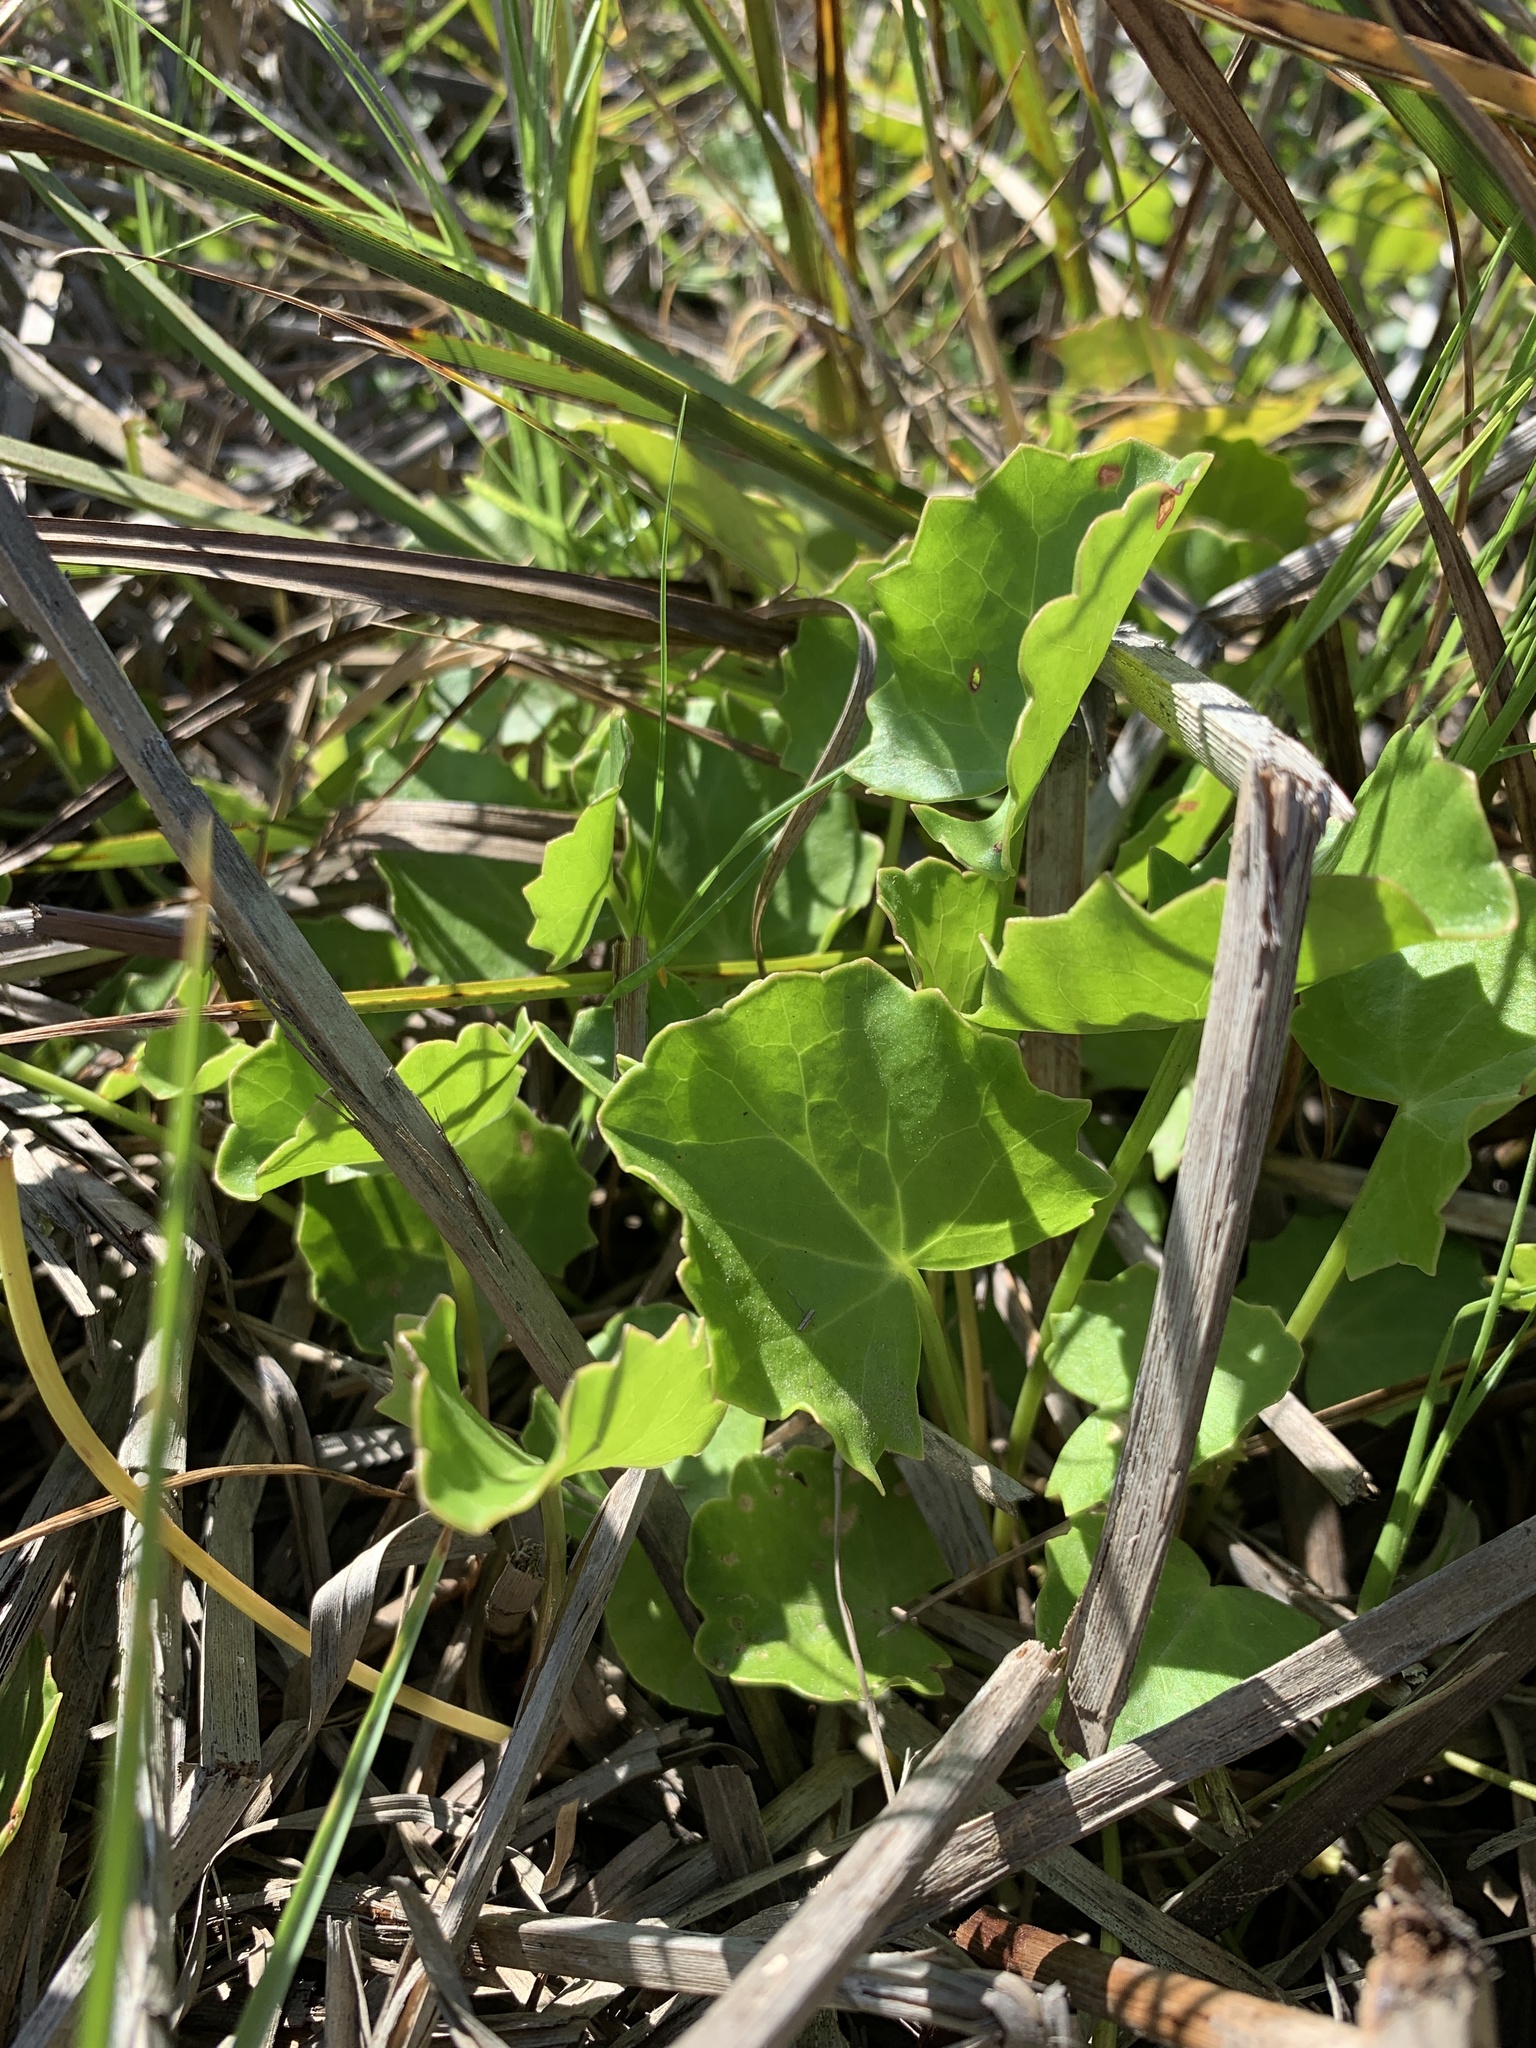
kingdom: Plantae
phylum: Tracheophyta
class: Magnoliopsida
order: Apiales
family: Apiaceae
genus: Centella
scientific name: Centella asiatica
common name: Spadeleaf
